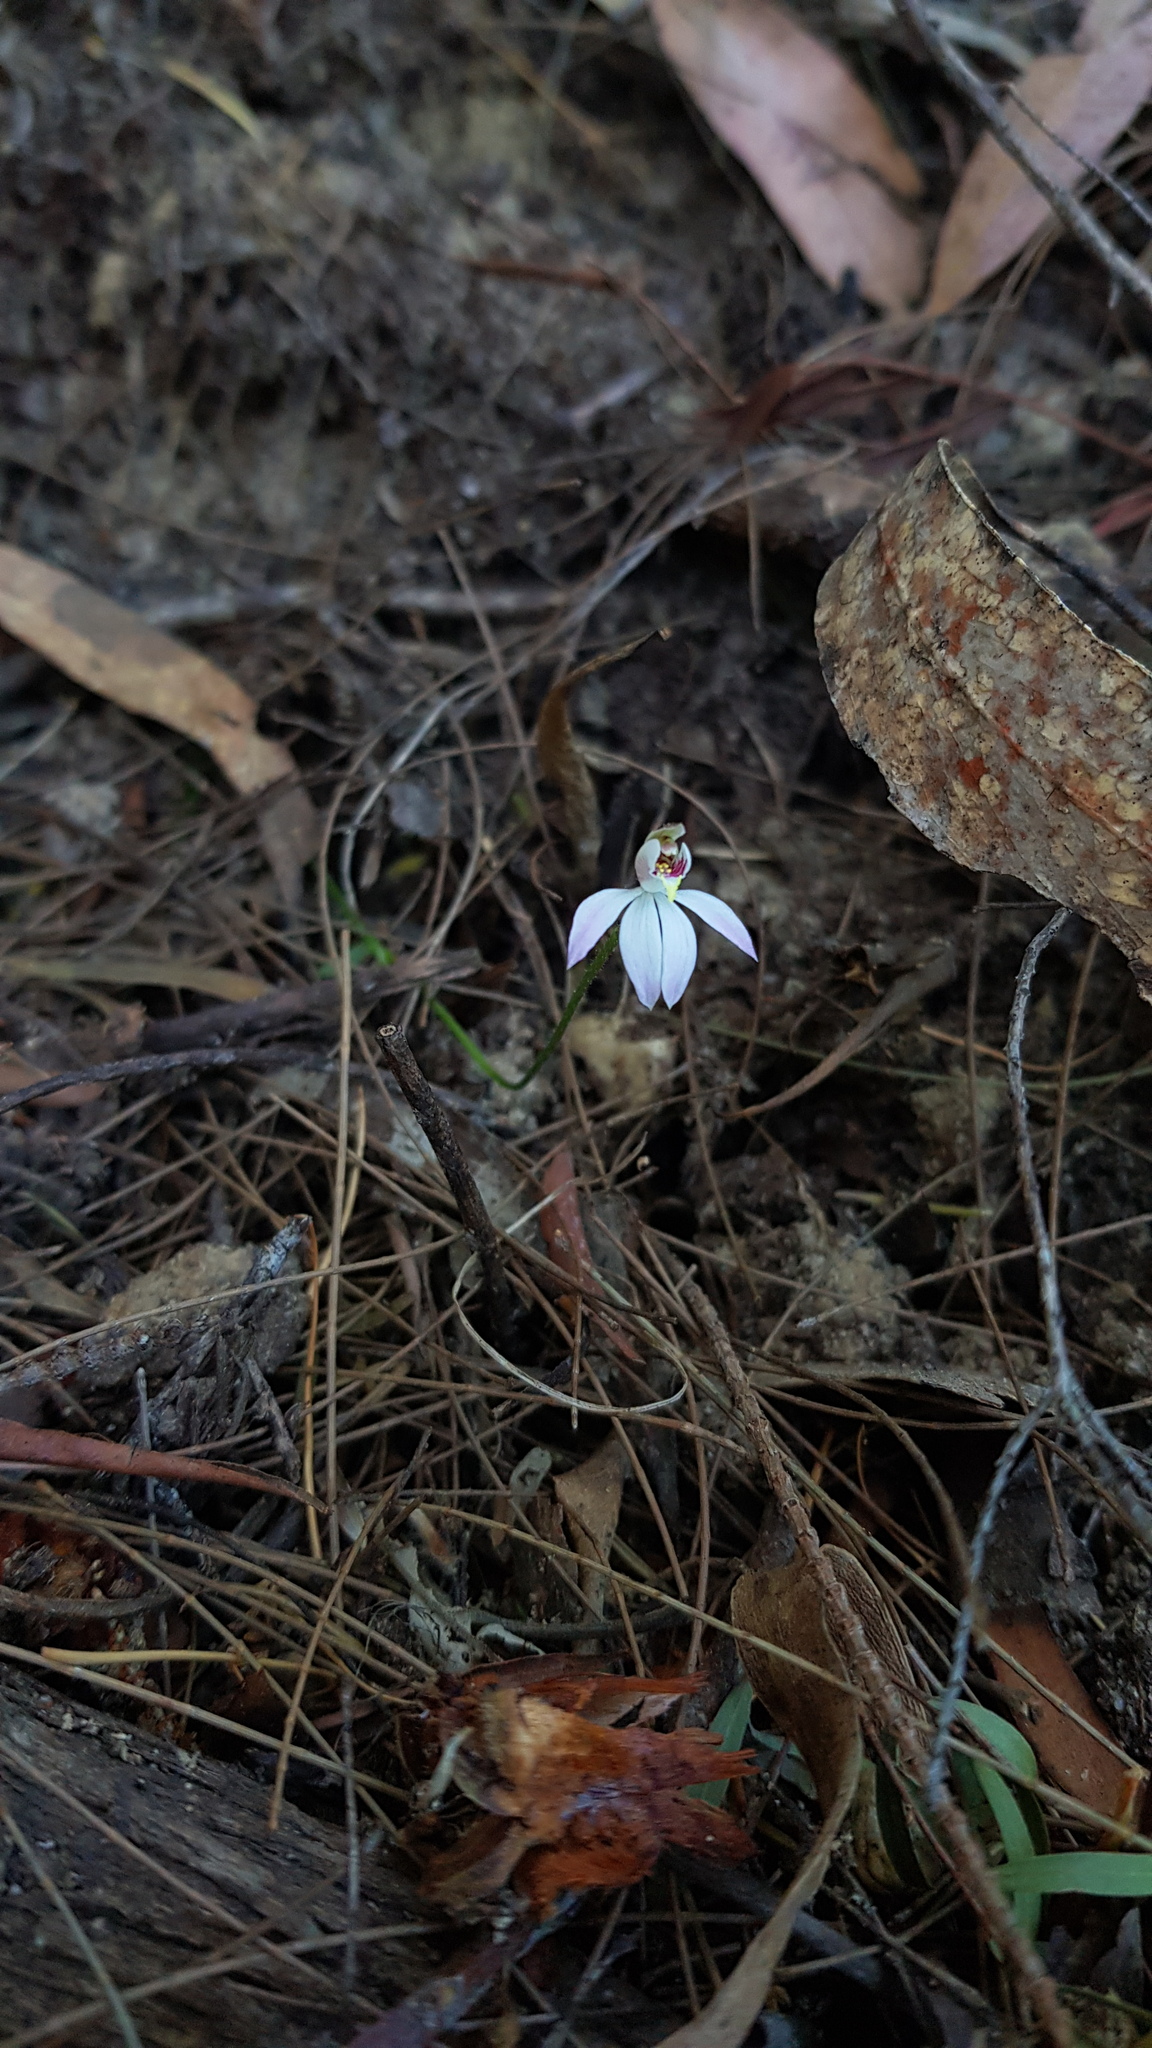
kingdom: Plantae
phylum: Tracheophyta
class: Liliopsida
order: Asparagales
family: Orchidaceae
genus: Caladenia
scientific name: Caladenia carnea
